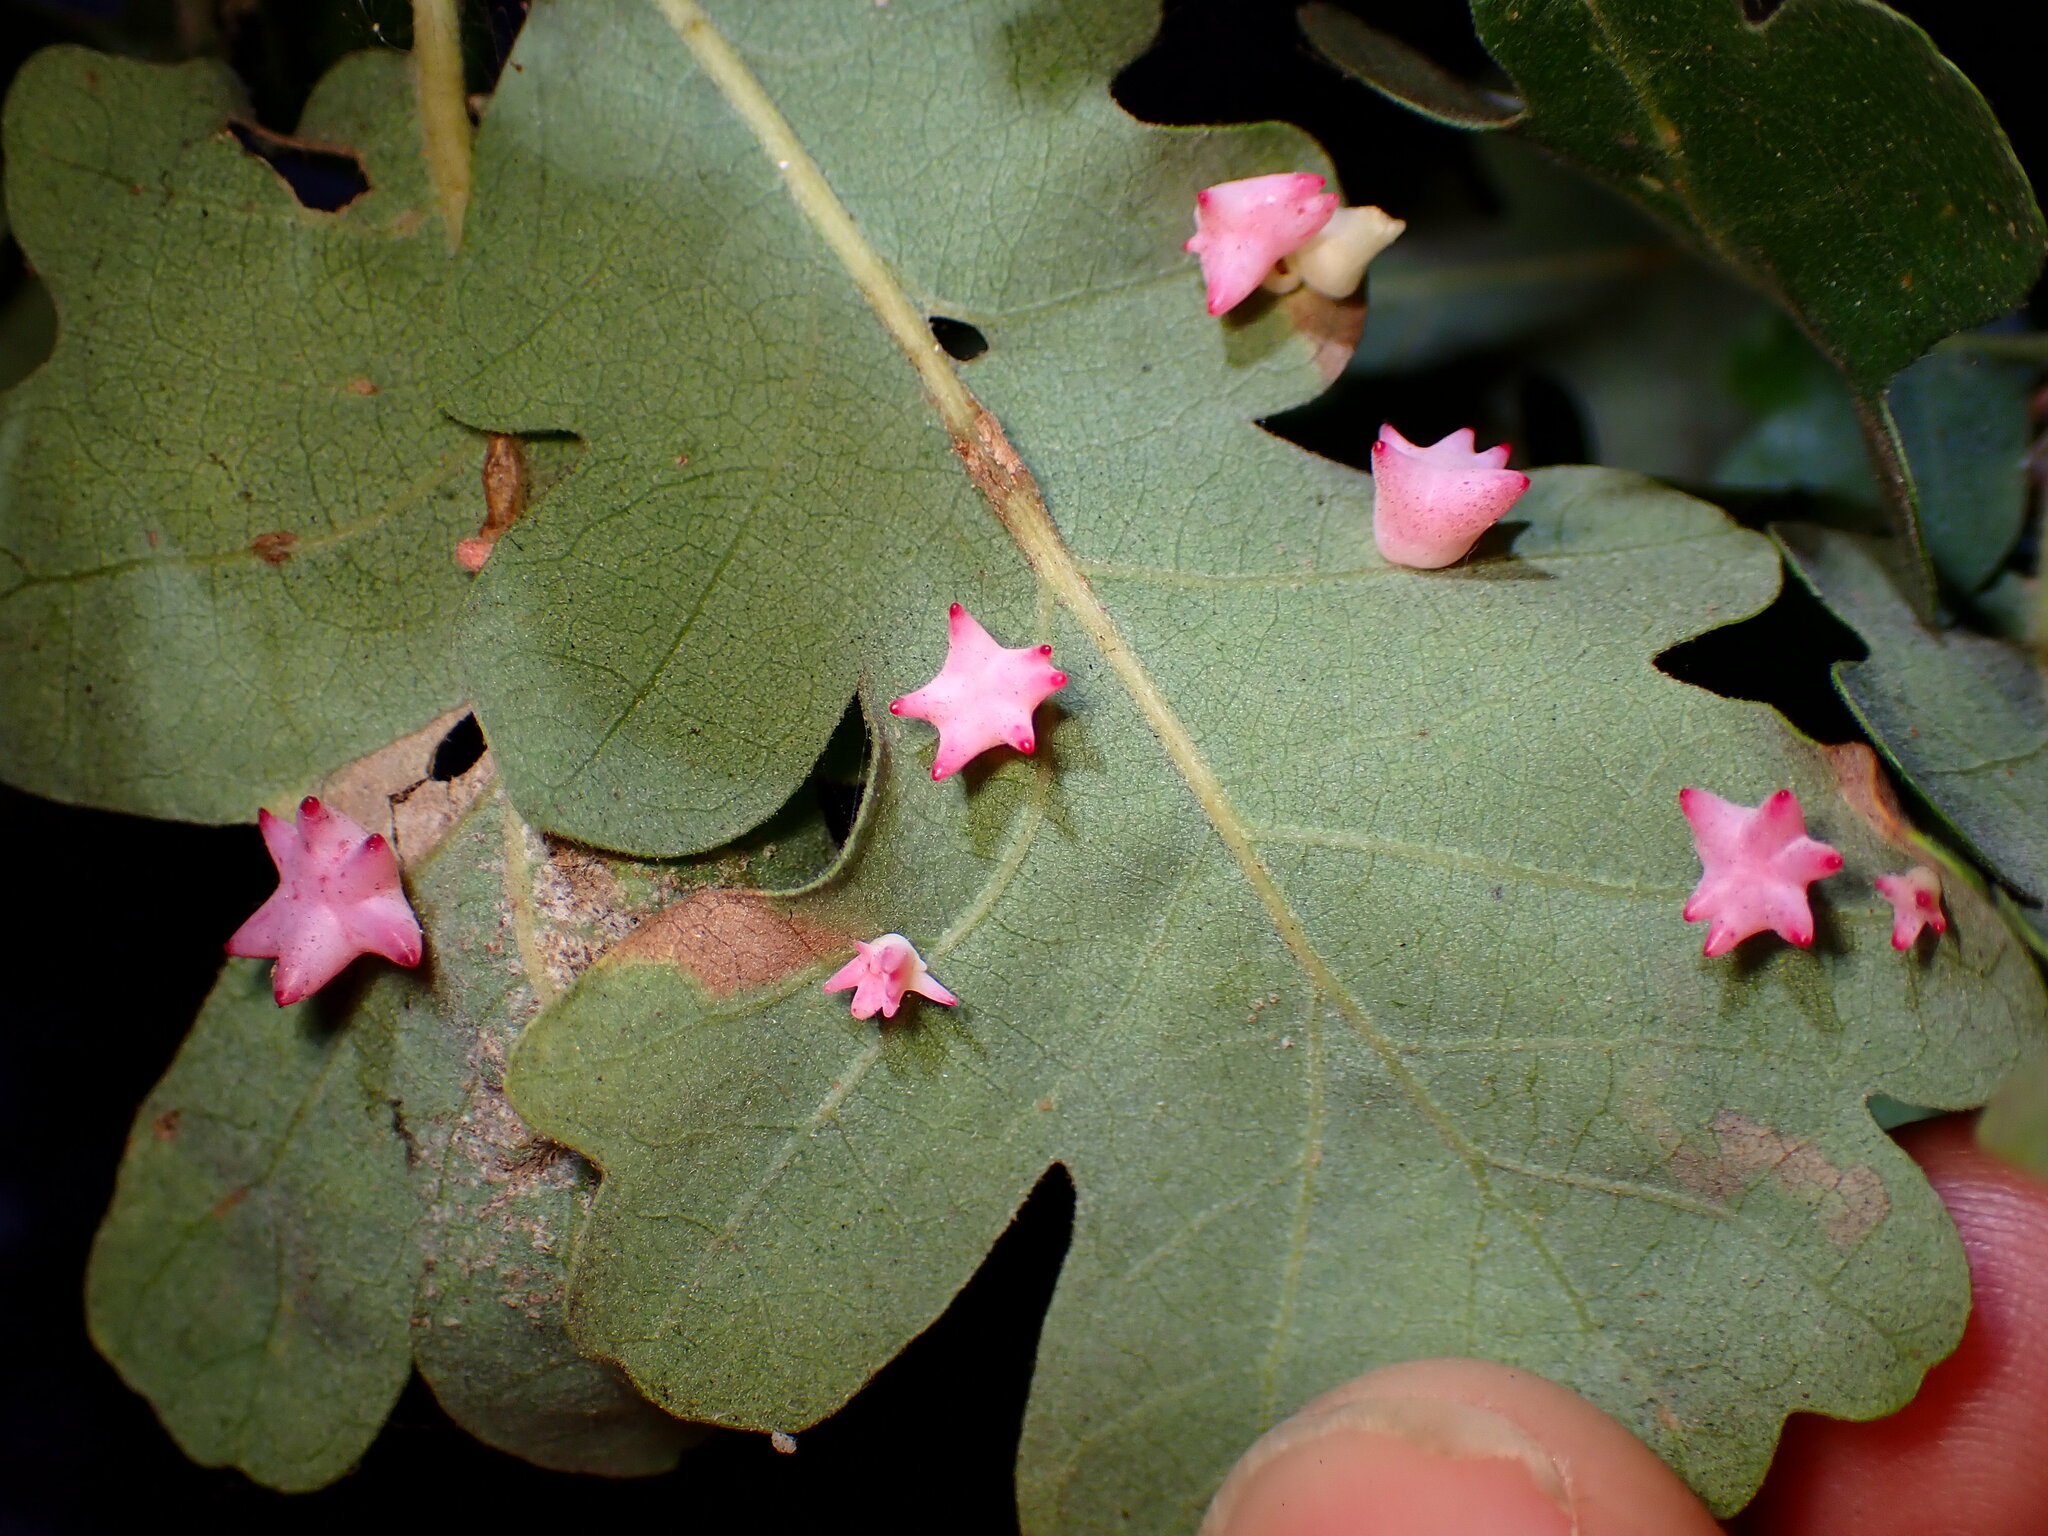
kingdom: Animalia
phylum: Arthropoda
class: Insecta
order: Hymenoptera
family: Cynipidae
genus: Cynips
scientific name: Cynips douglasi
